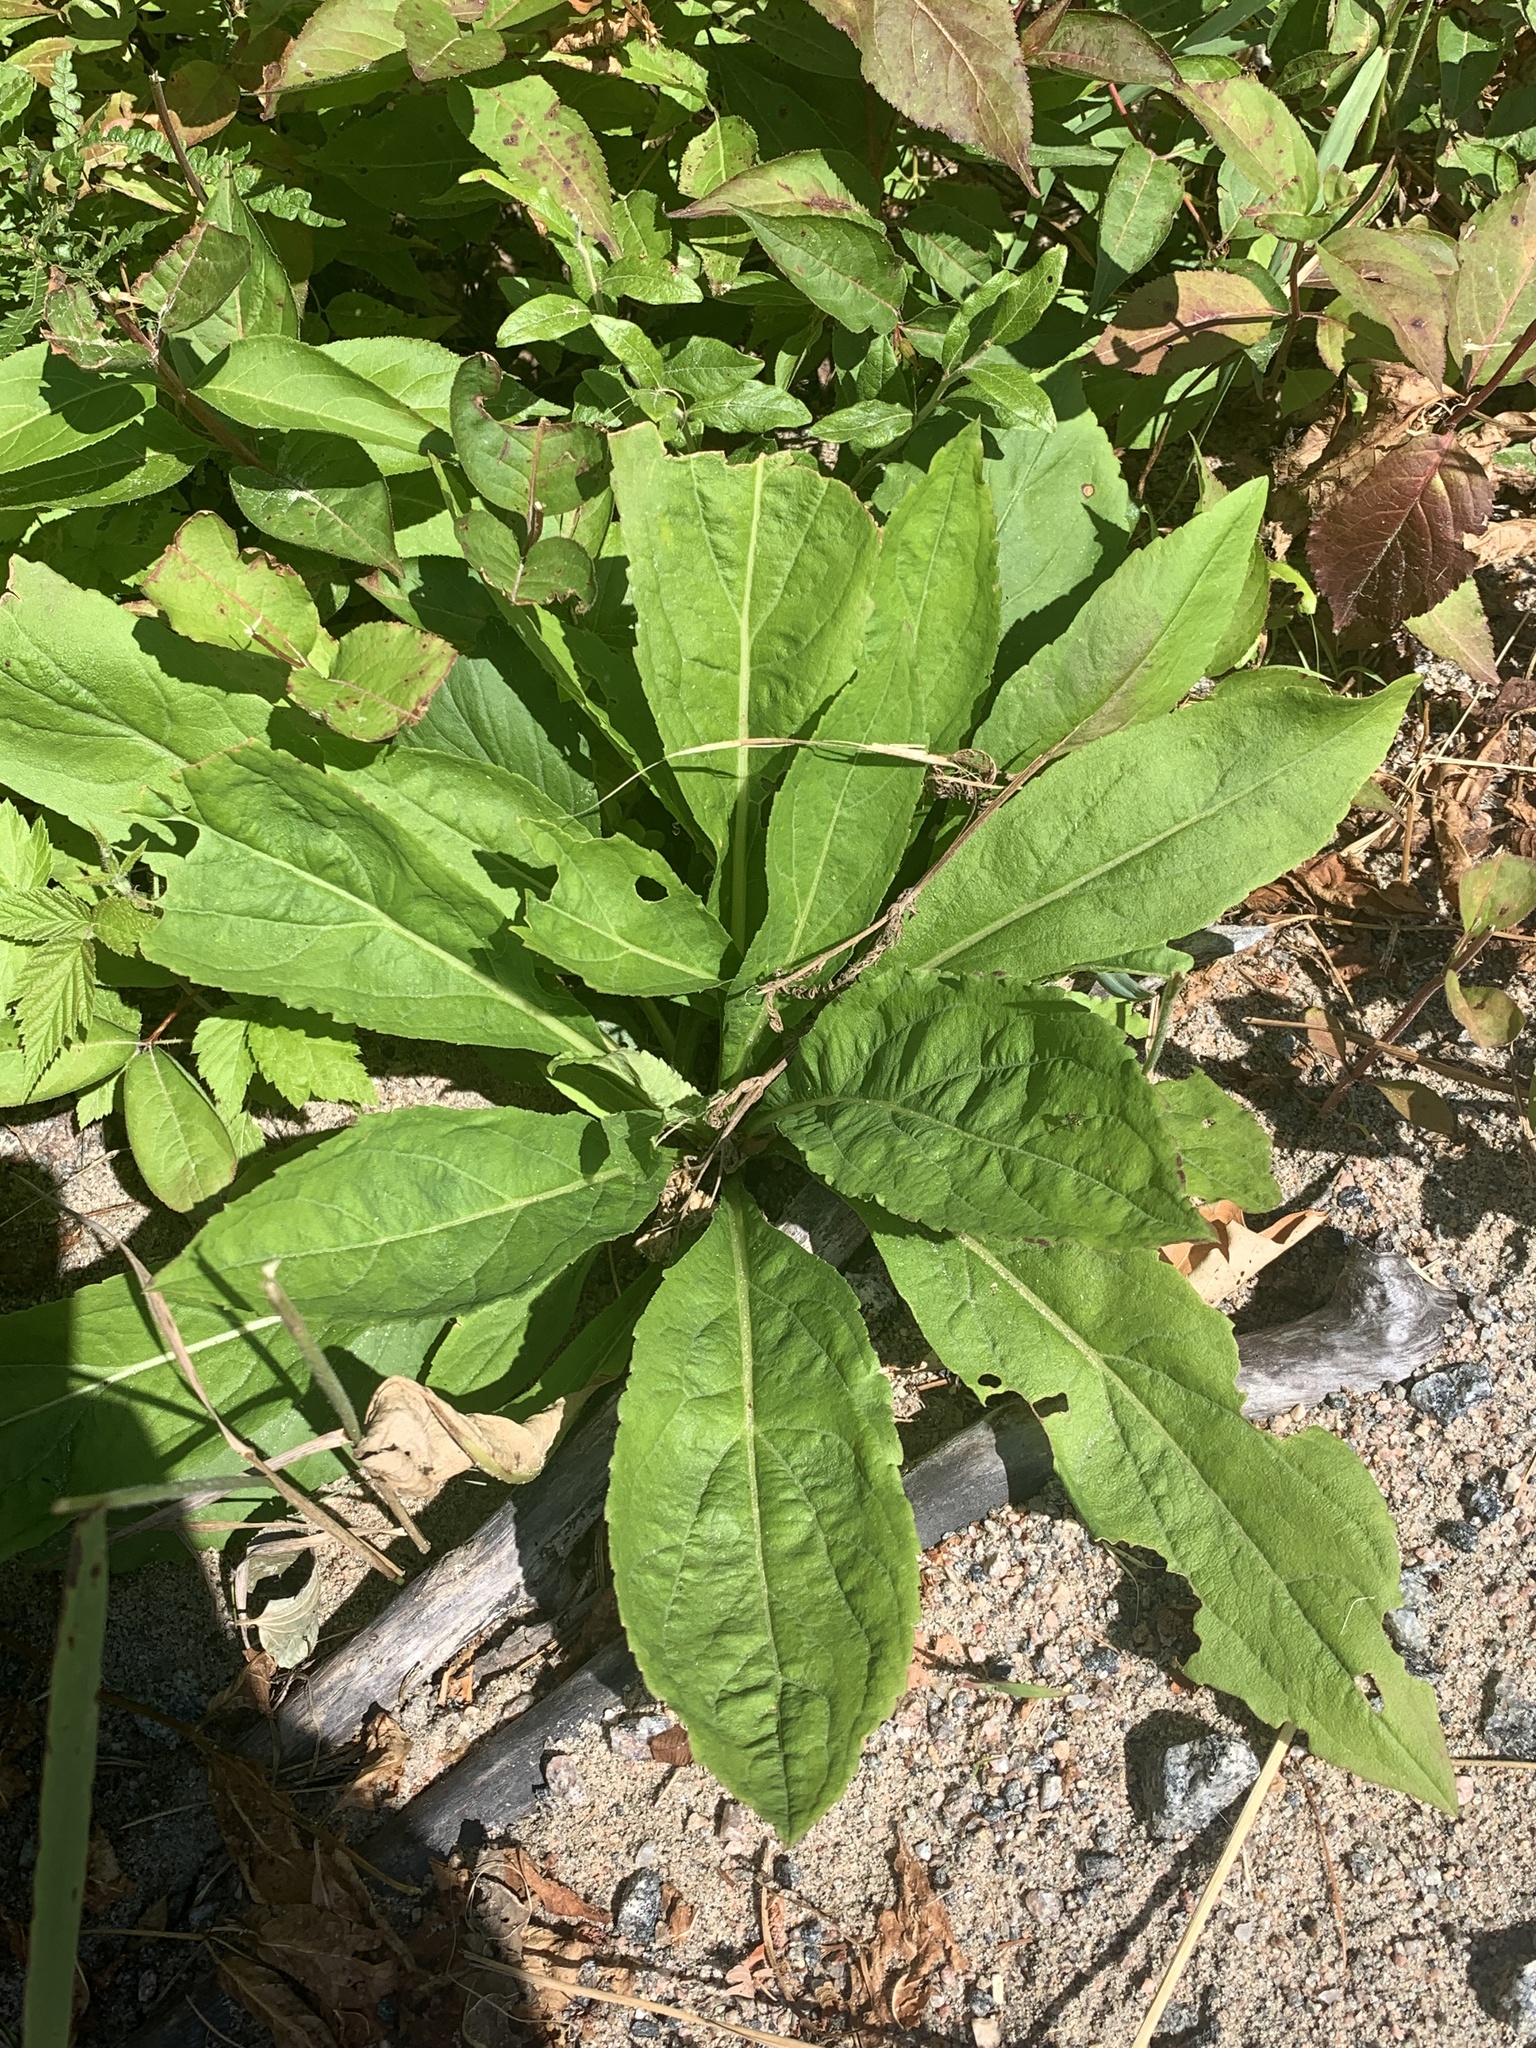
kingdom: Plantae
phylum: Tracheophyta
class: Magnoliopsida
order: Brassicales
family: Brassicaceae
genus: Hesperis
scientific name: Hesperis matronalis
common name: Dame's-violet
